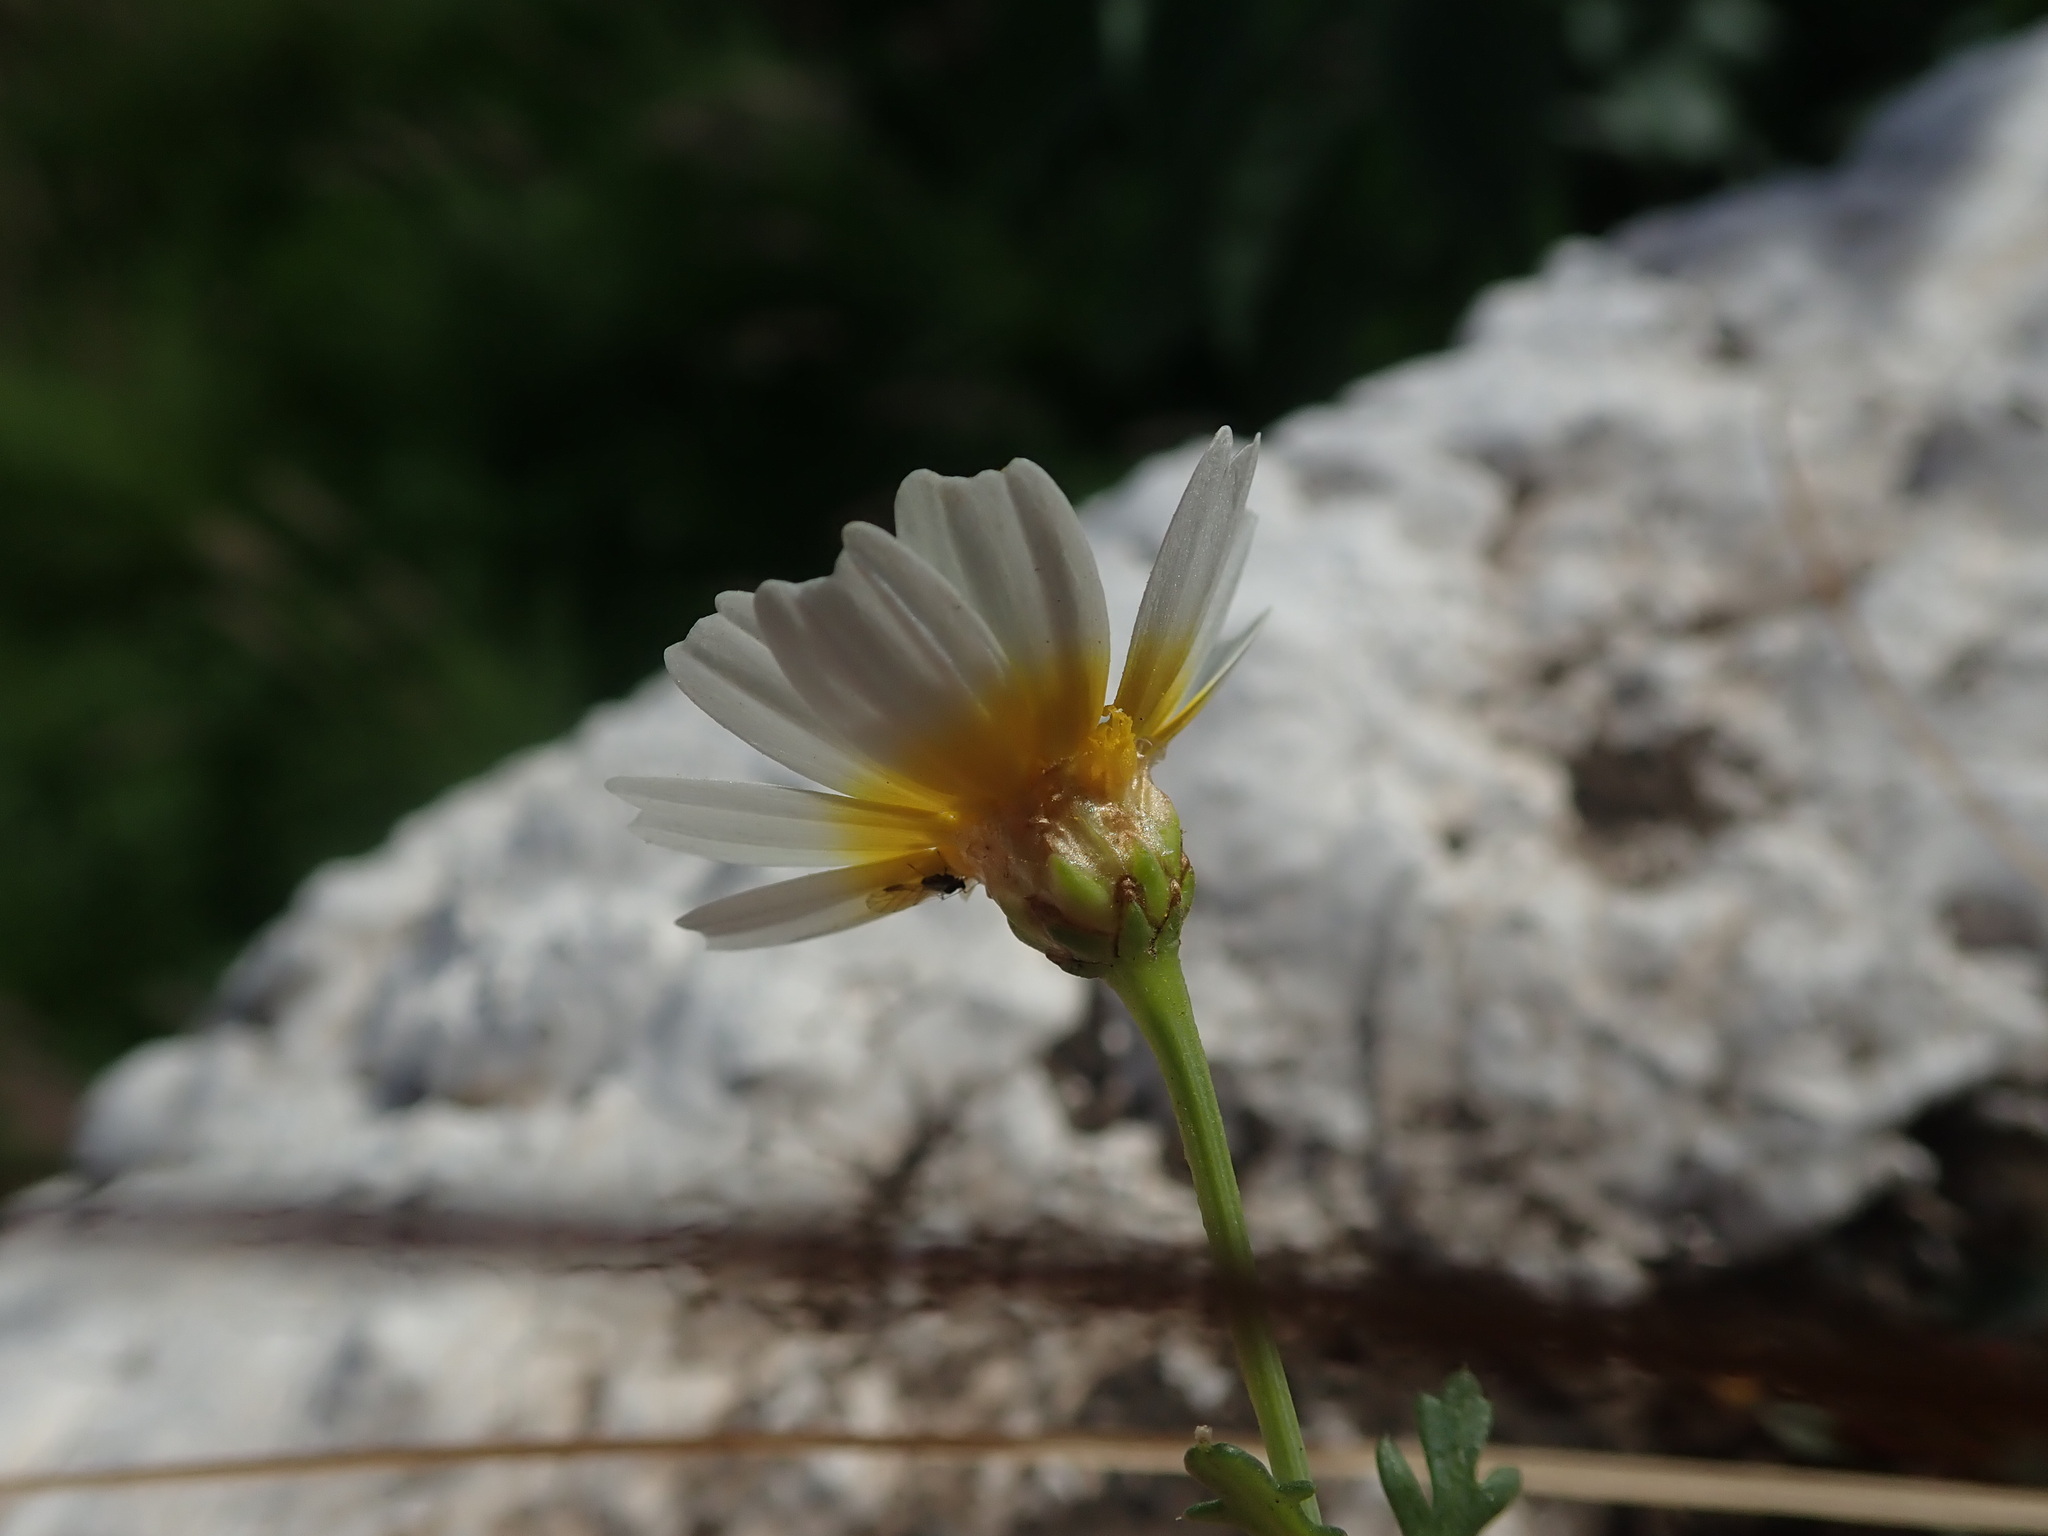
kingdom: Plantae
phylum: Tracheophyta
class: Magnoliopsida
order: Asterales
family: Asteraceae
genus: Glebionis
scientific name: Glebionis coronaria
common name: Crowndaisy
